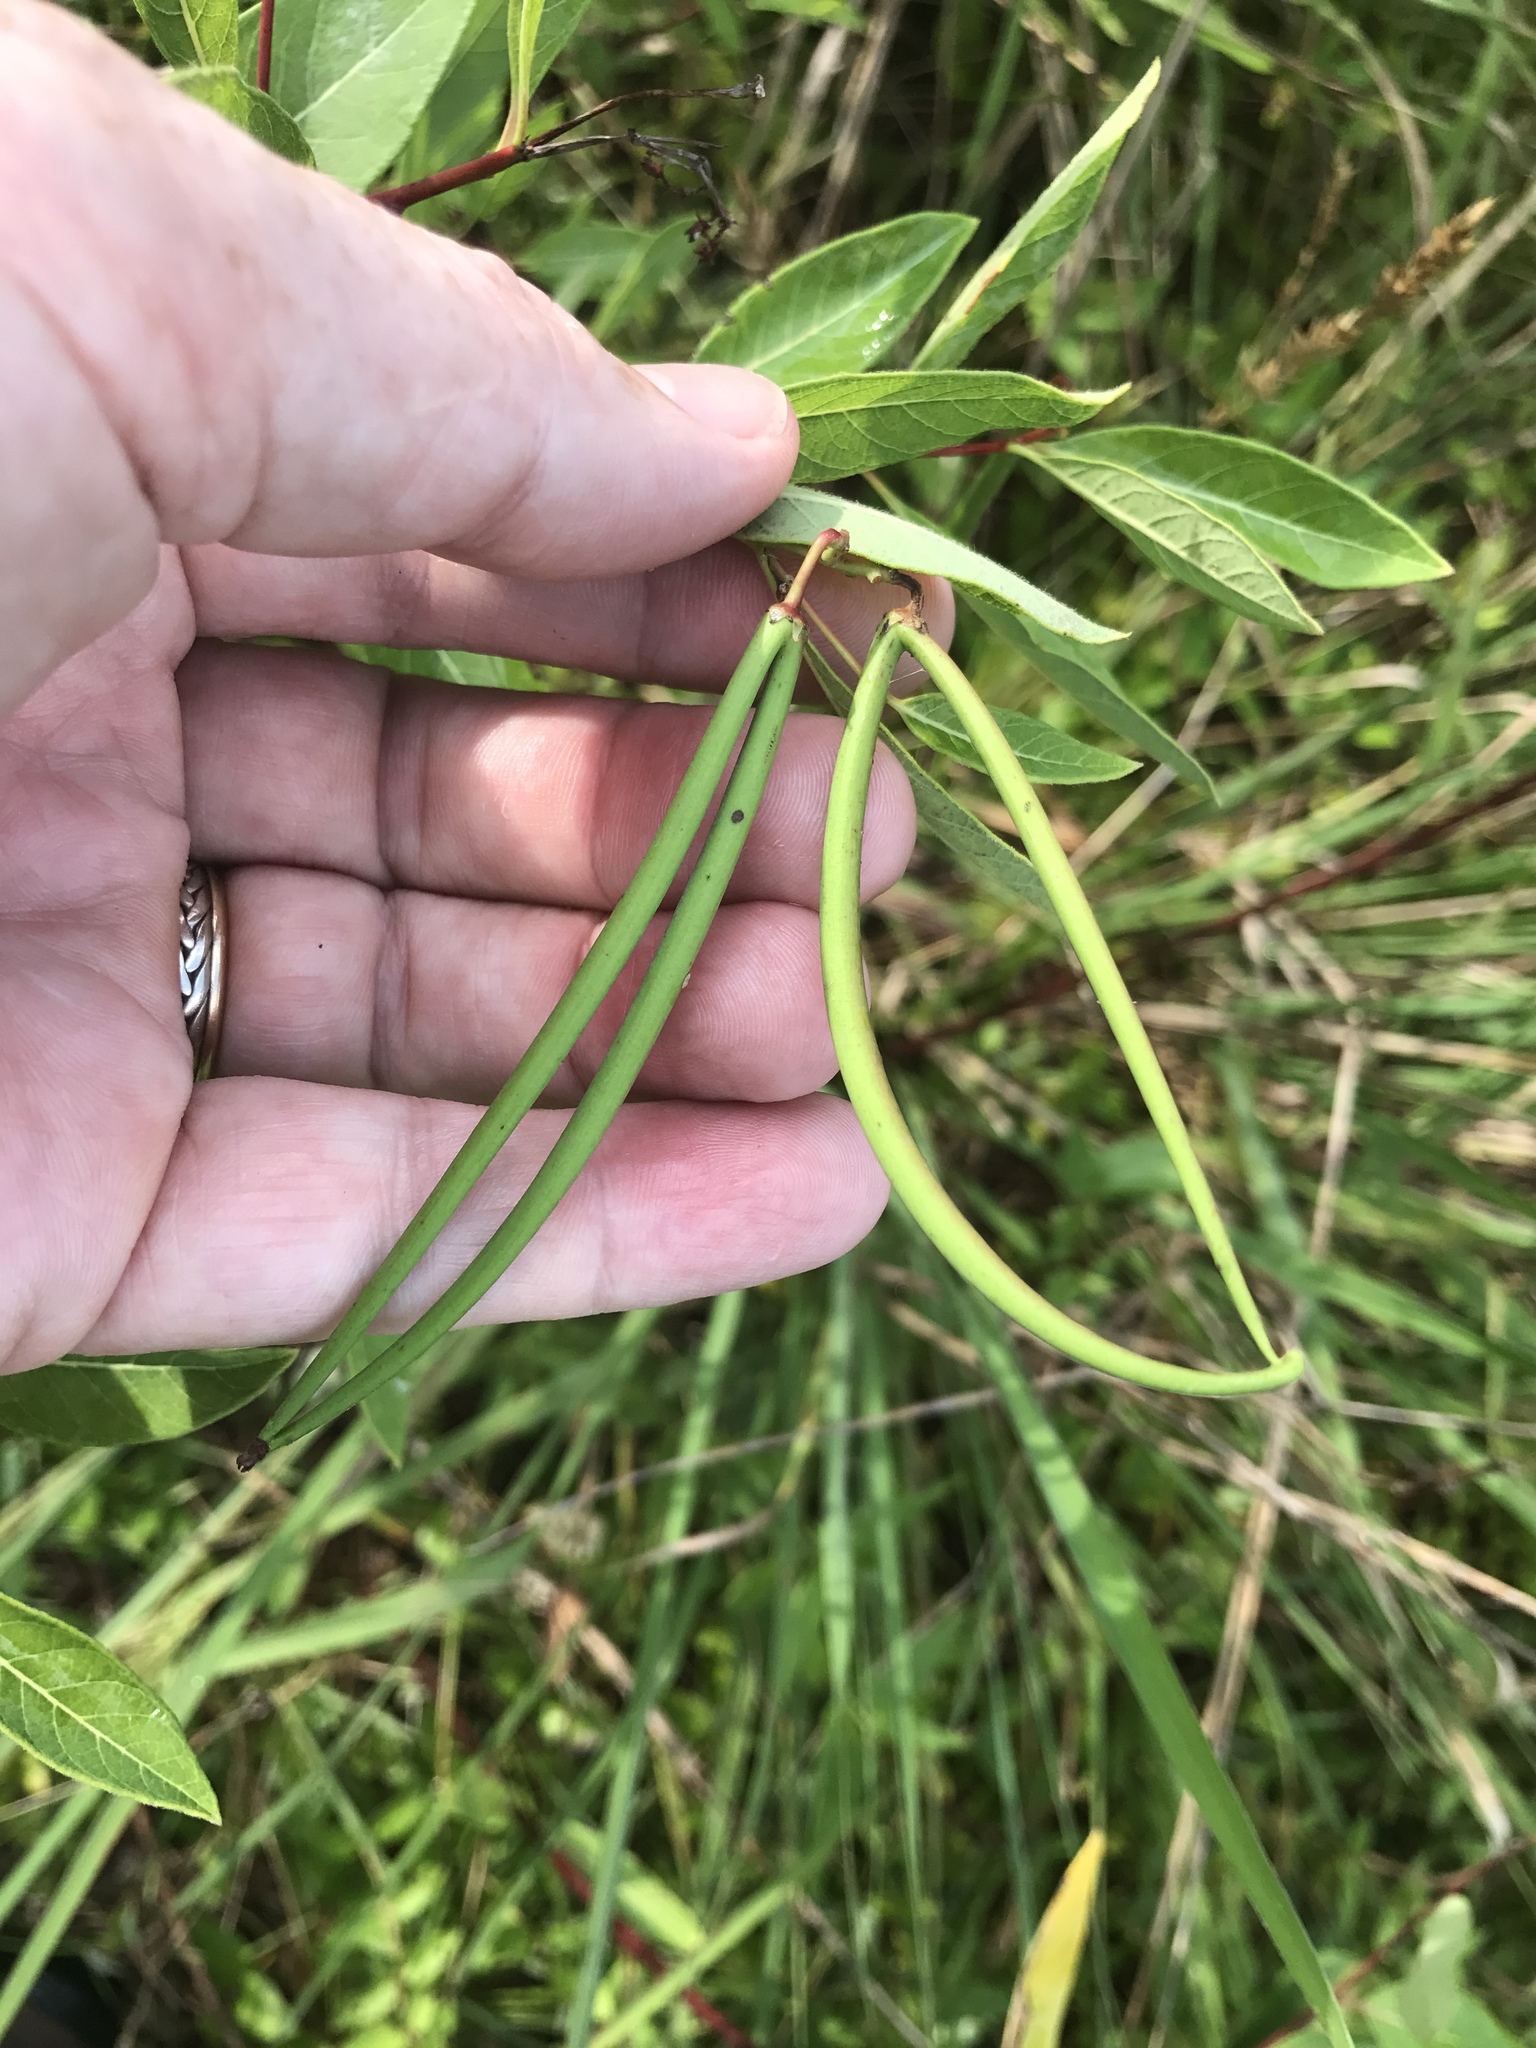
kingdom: Plantae
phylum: Tracheophyta
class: Magnoliopsida
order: Gentianales
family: Apocynaceae
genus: Apocynum
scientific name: Apocynum cannabinum
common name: Hemp dogbane
